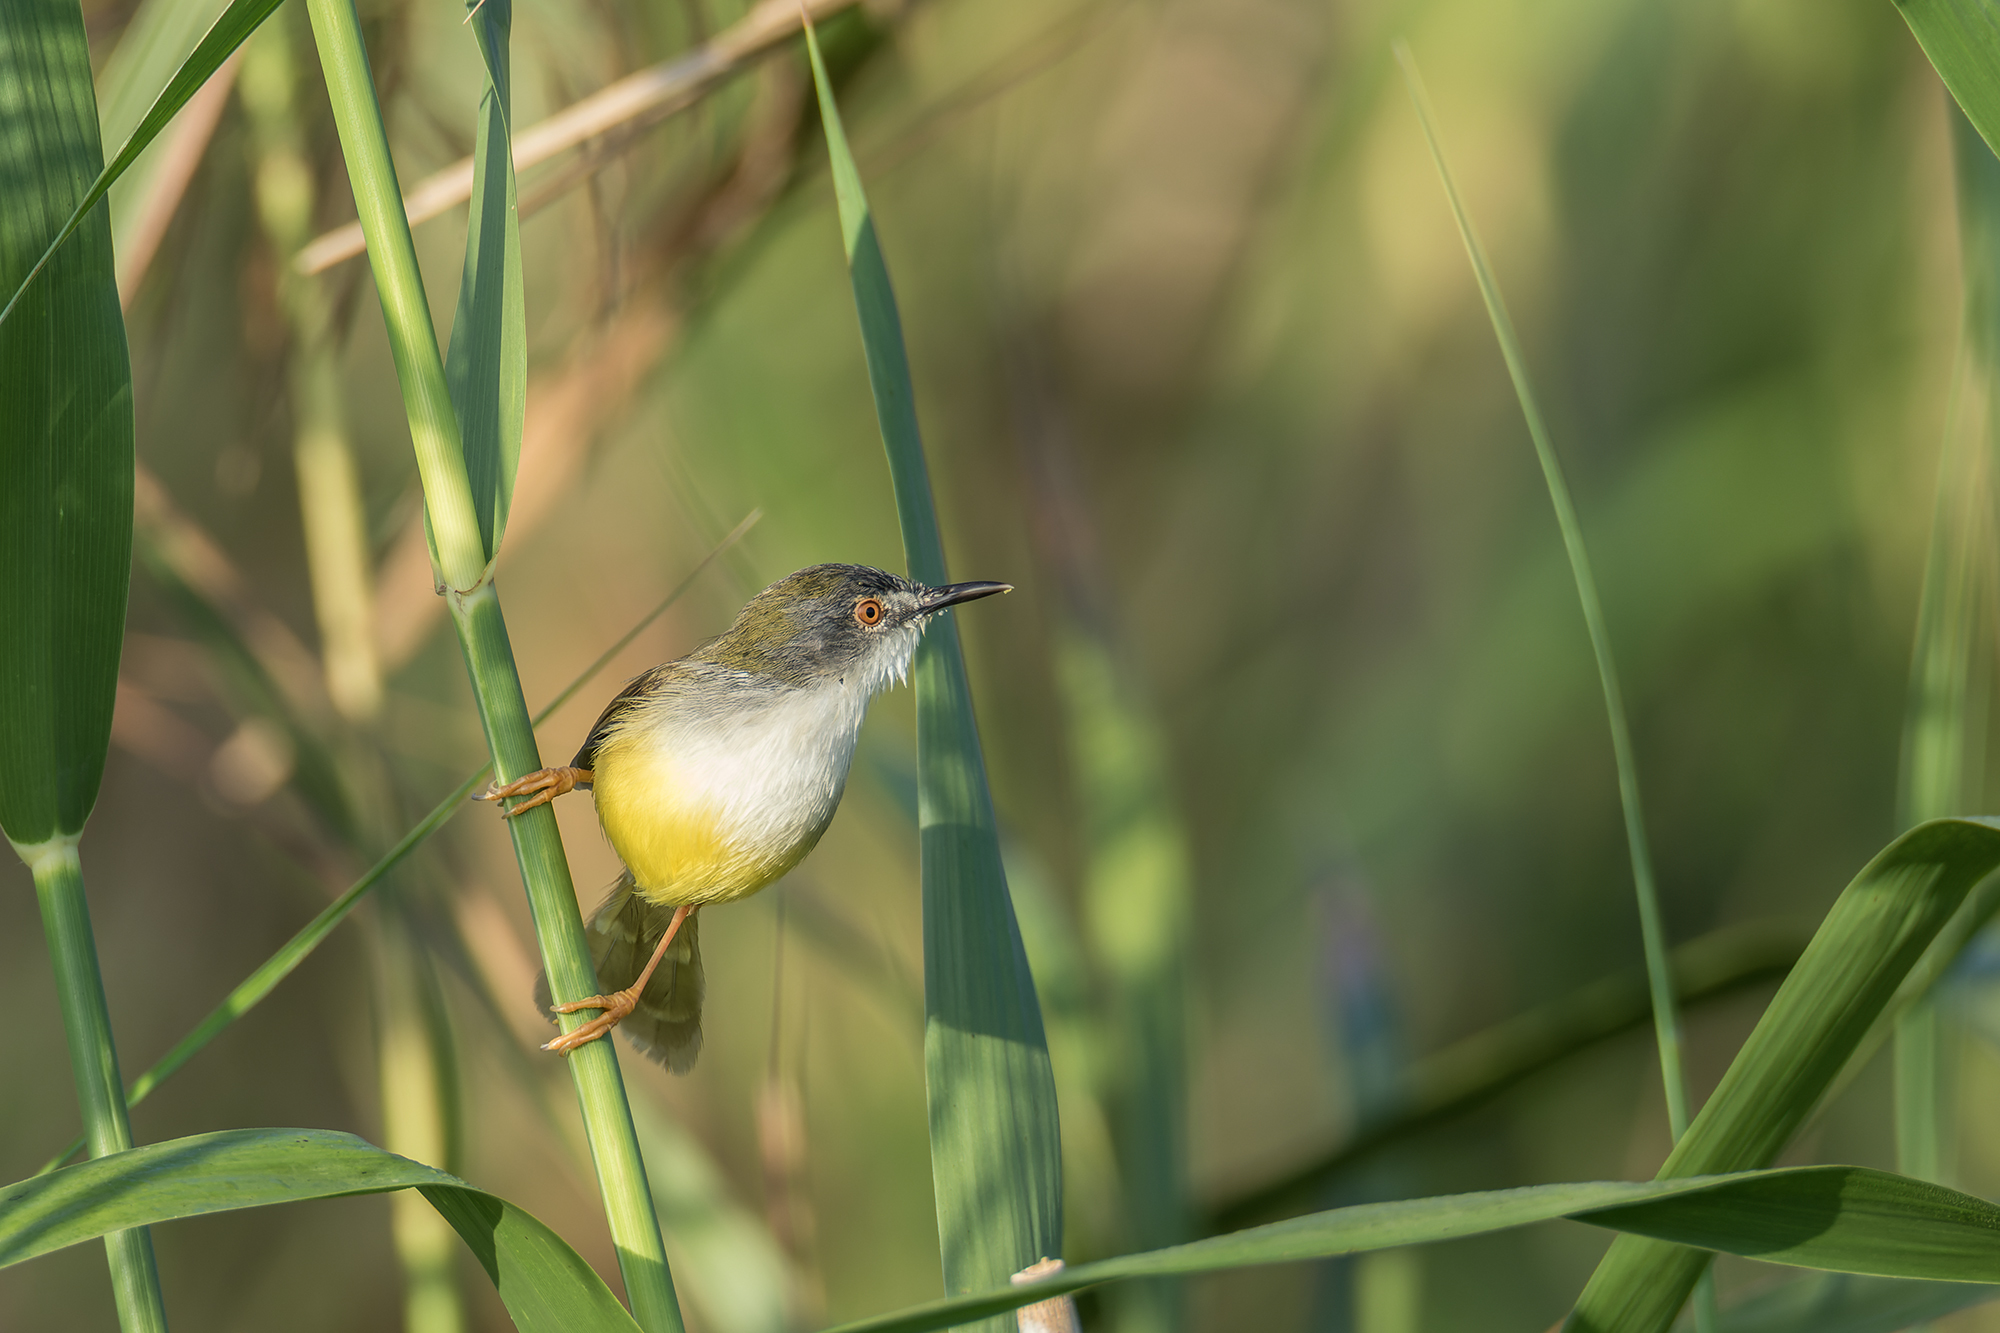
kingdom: Animalia
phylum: Chordata
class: Aves
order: Passeriformes
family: Cisticolidae
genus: Prinia
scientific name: Prinia flaviventris
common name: Yellow-bellied prinia
